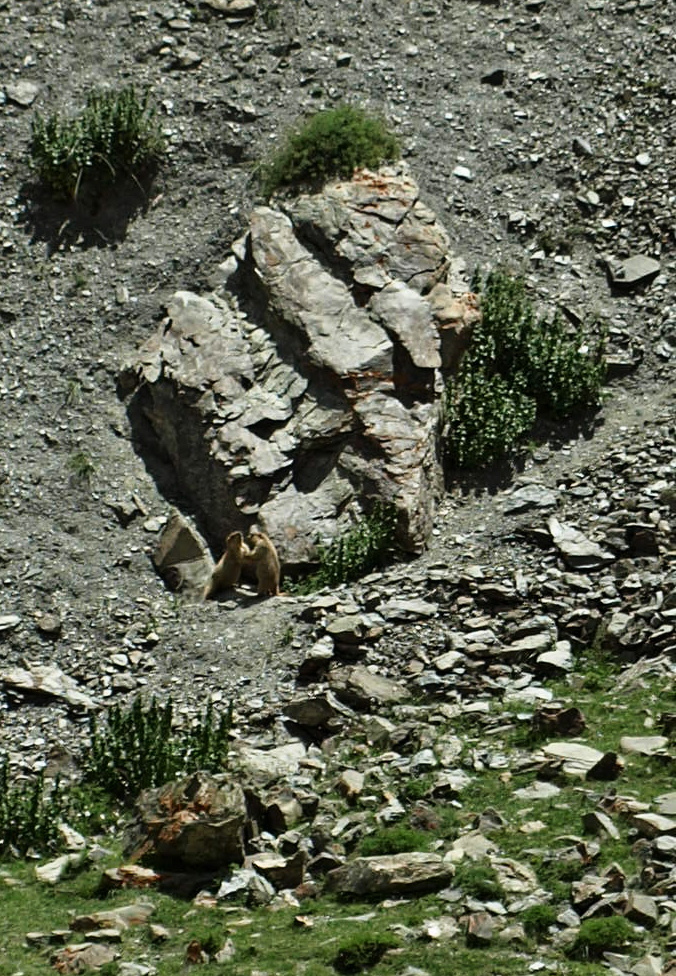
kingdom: Animalia
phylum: Chordata
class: Mammalia
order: Rodentia
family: Sciuridae
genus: Marmota
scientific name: Marmota himalayana
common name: Himalayan marmot
